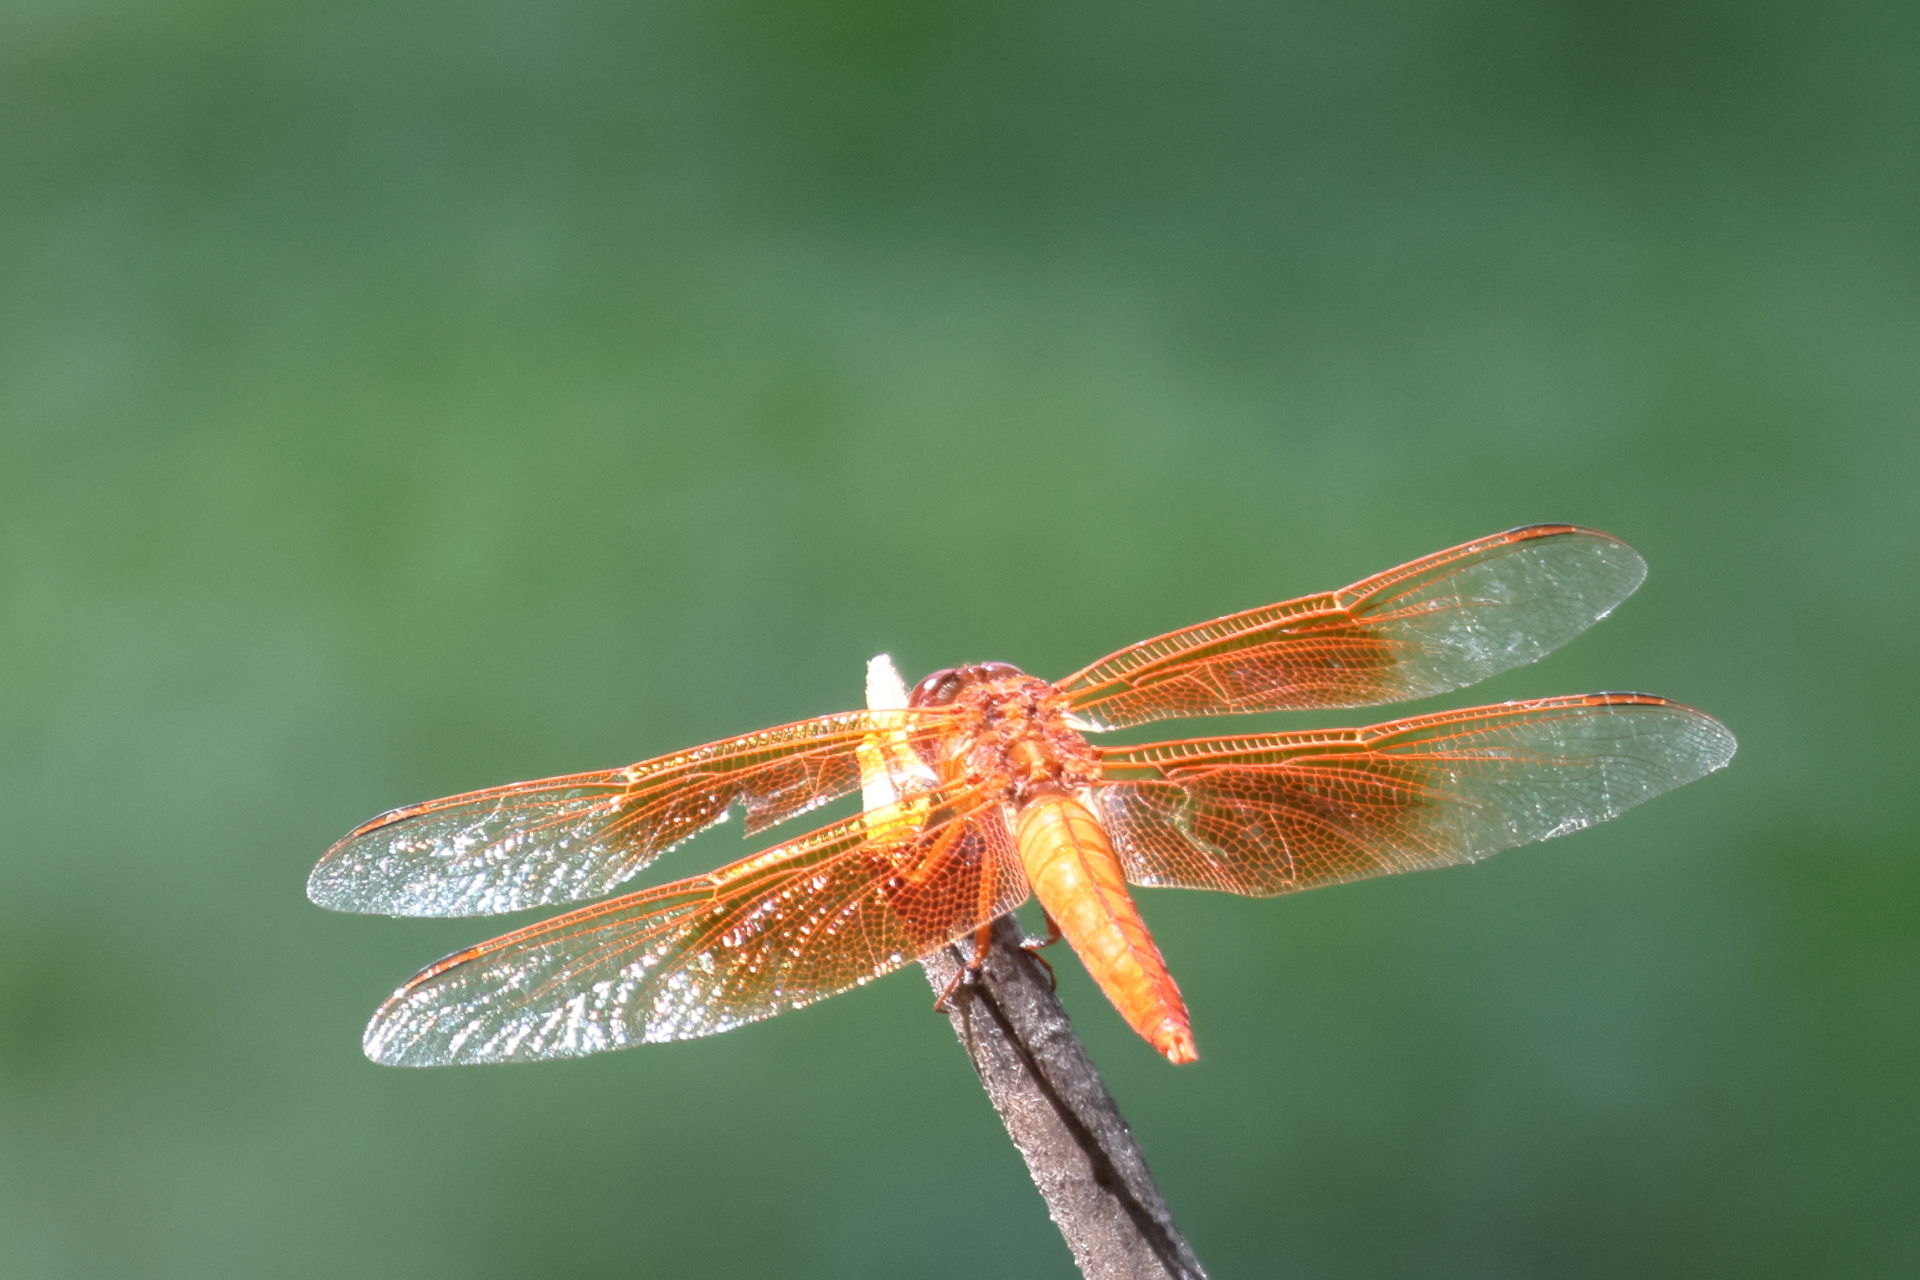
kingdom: Animalia
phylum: Arthropoda
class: Insecta
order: Odonata
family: Libellulidae
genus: Libellula
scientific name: Libellula saturata
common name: Flame skimmer
